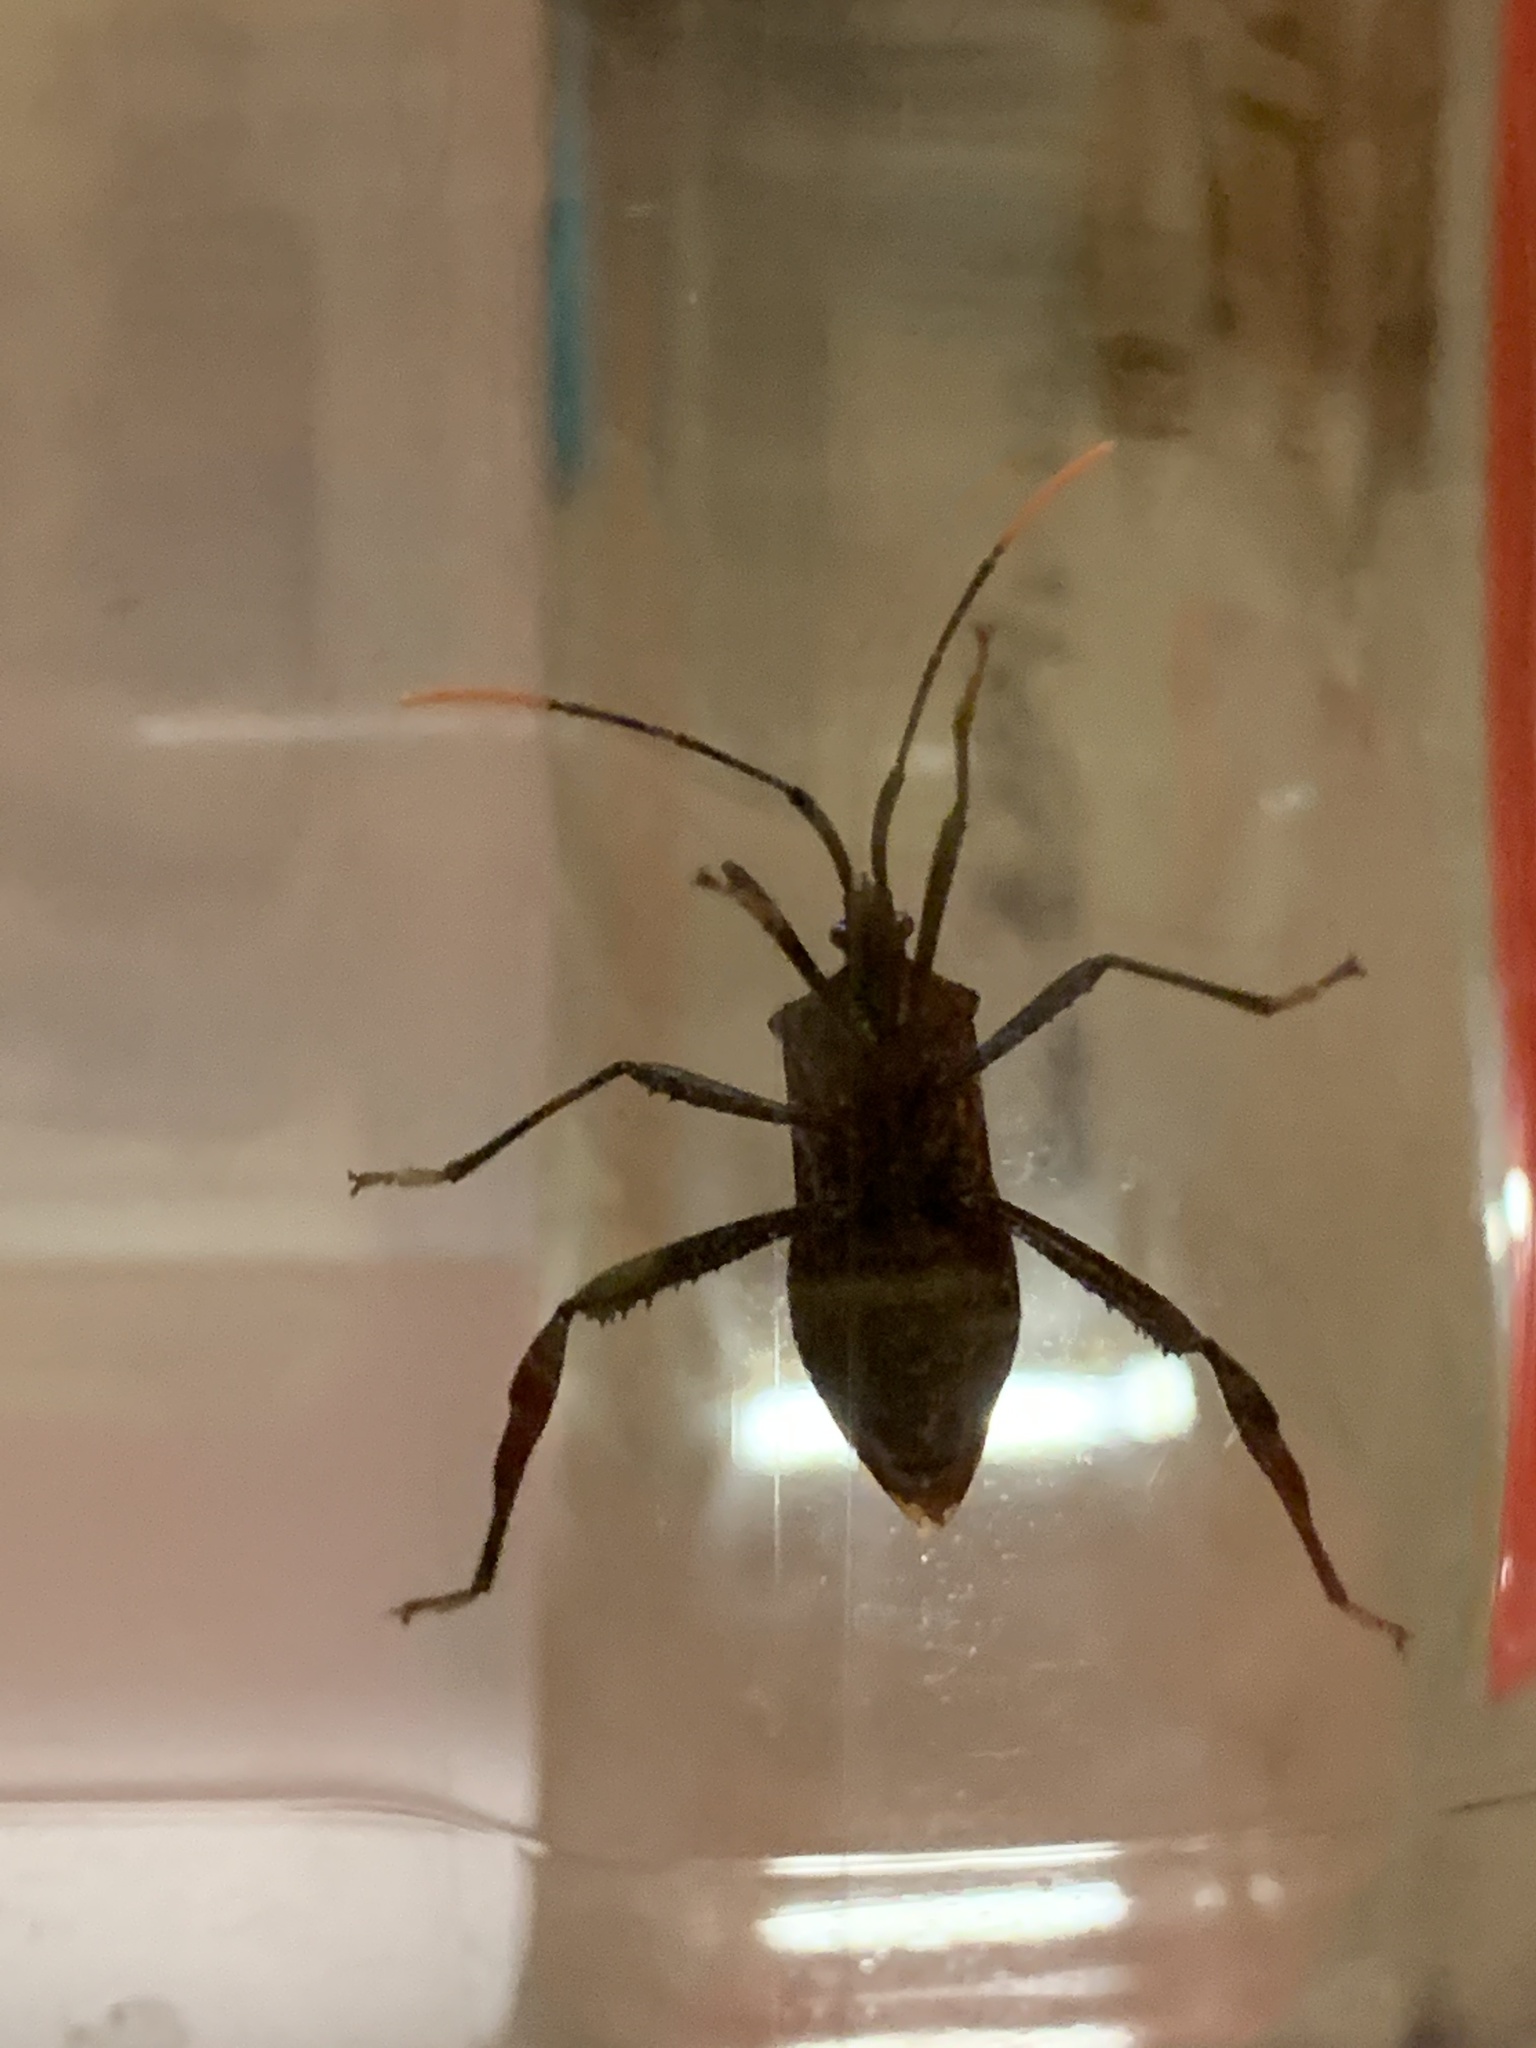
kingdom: Animalia
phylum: Arthropoda
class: Insecta
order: Hemiptera
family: Coreidae
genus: Acanthocephala
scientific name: Acanthocephala terminalis
